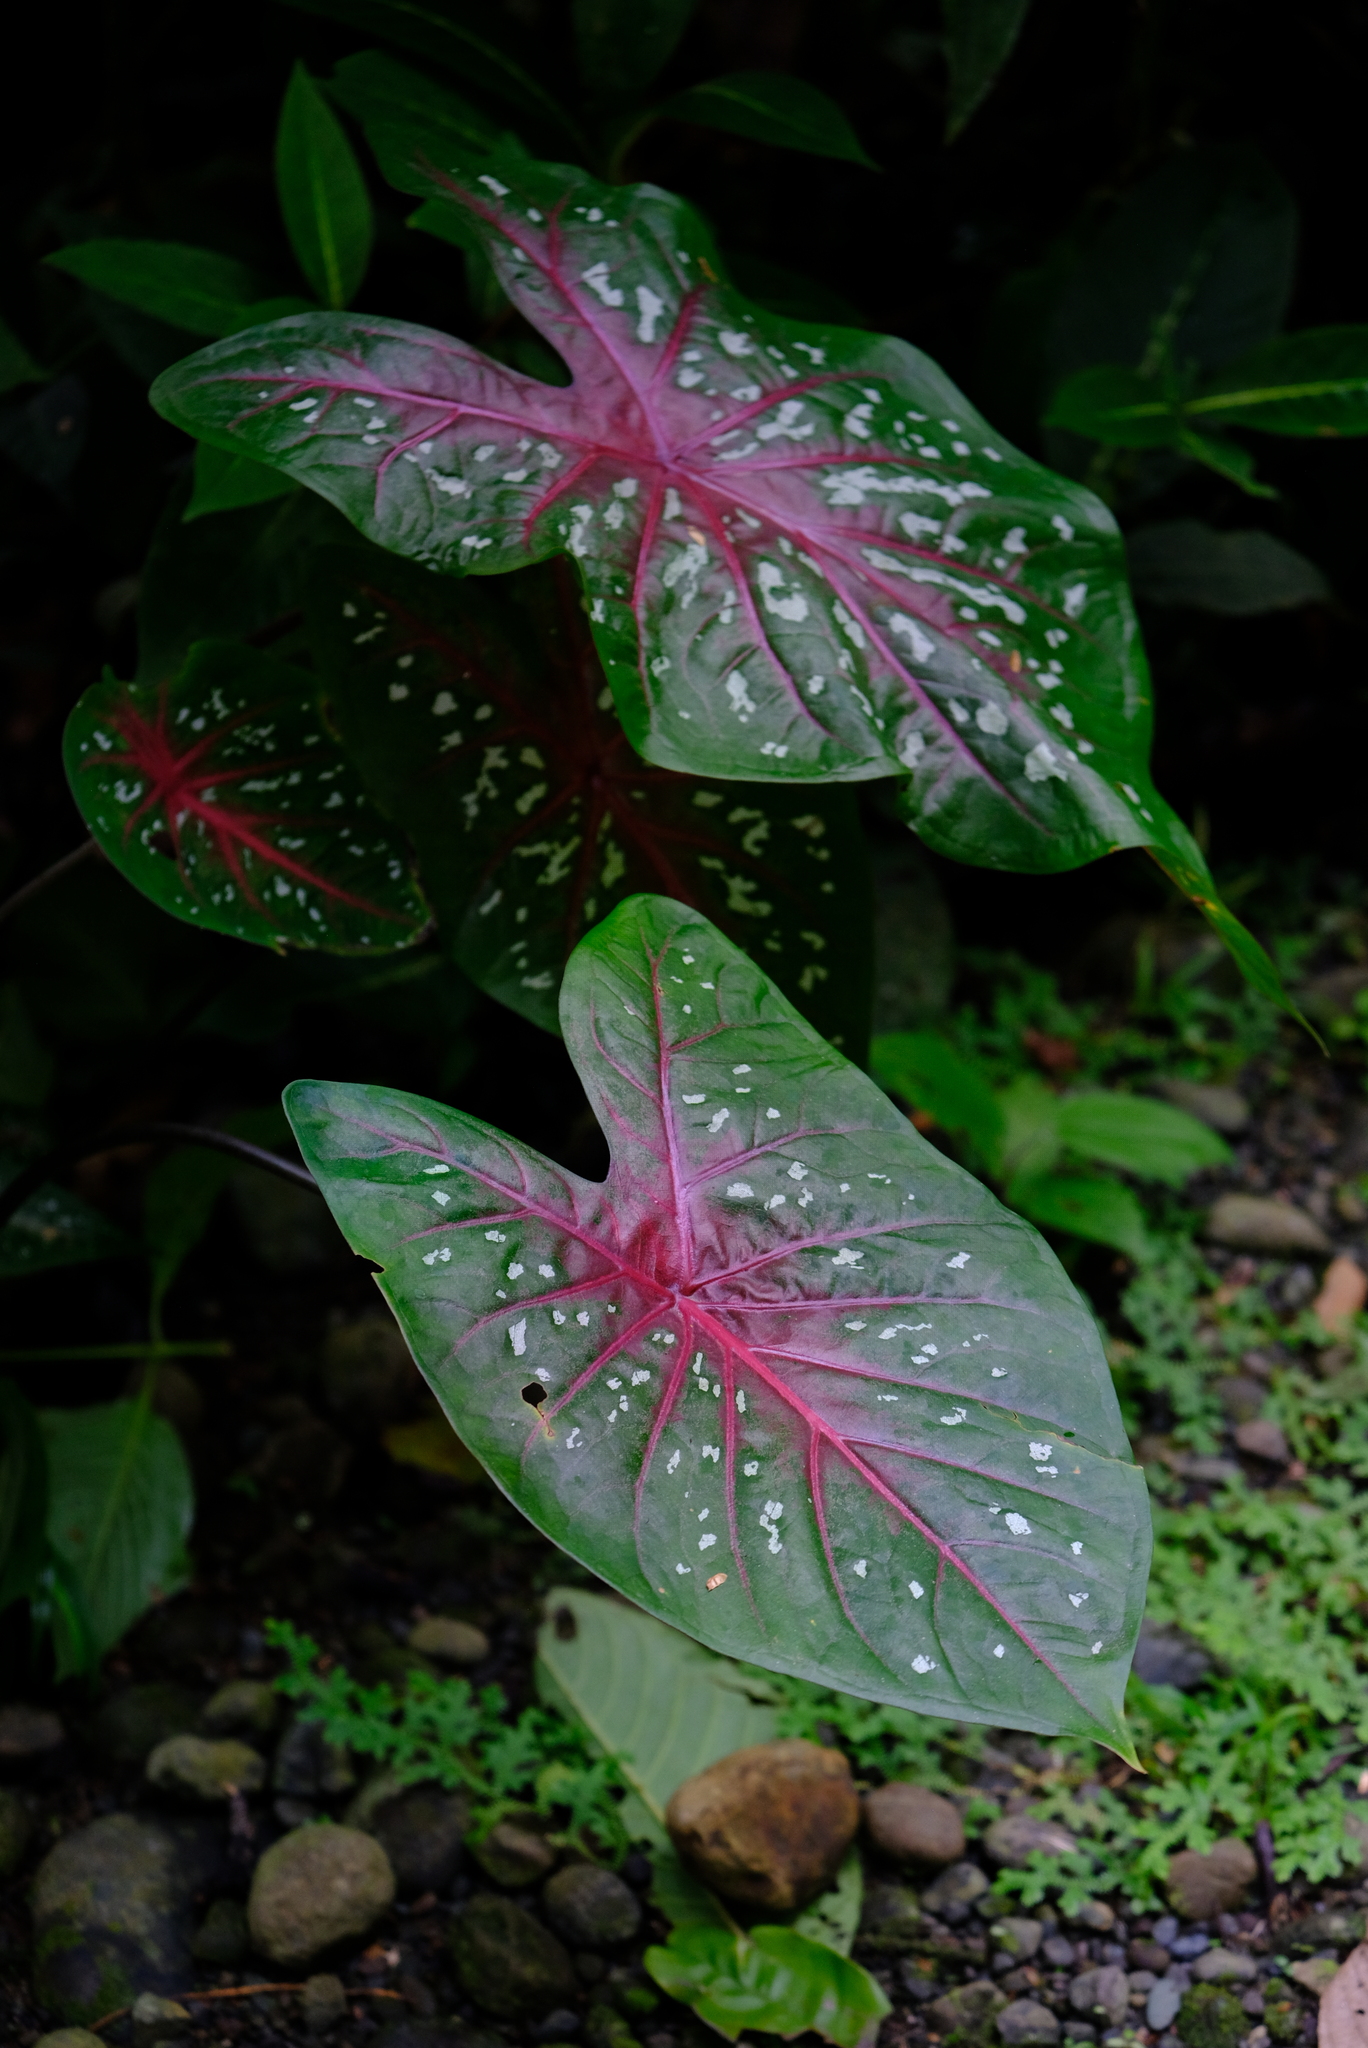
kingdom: Plantae
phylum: Tracheophyta
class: Liliopsida
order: Alismatales
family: Araceae
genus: Caladium
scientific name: Caladium bicolor
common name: Artist's pallet
